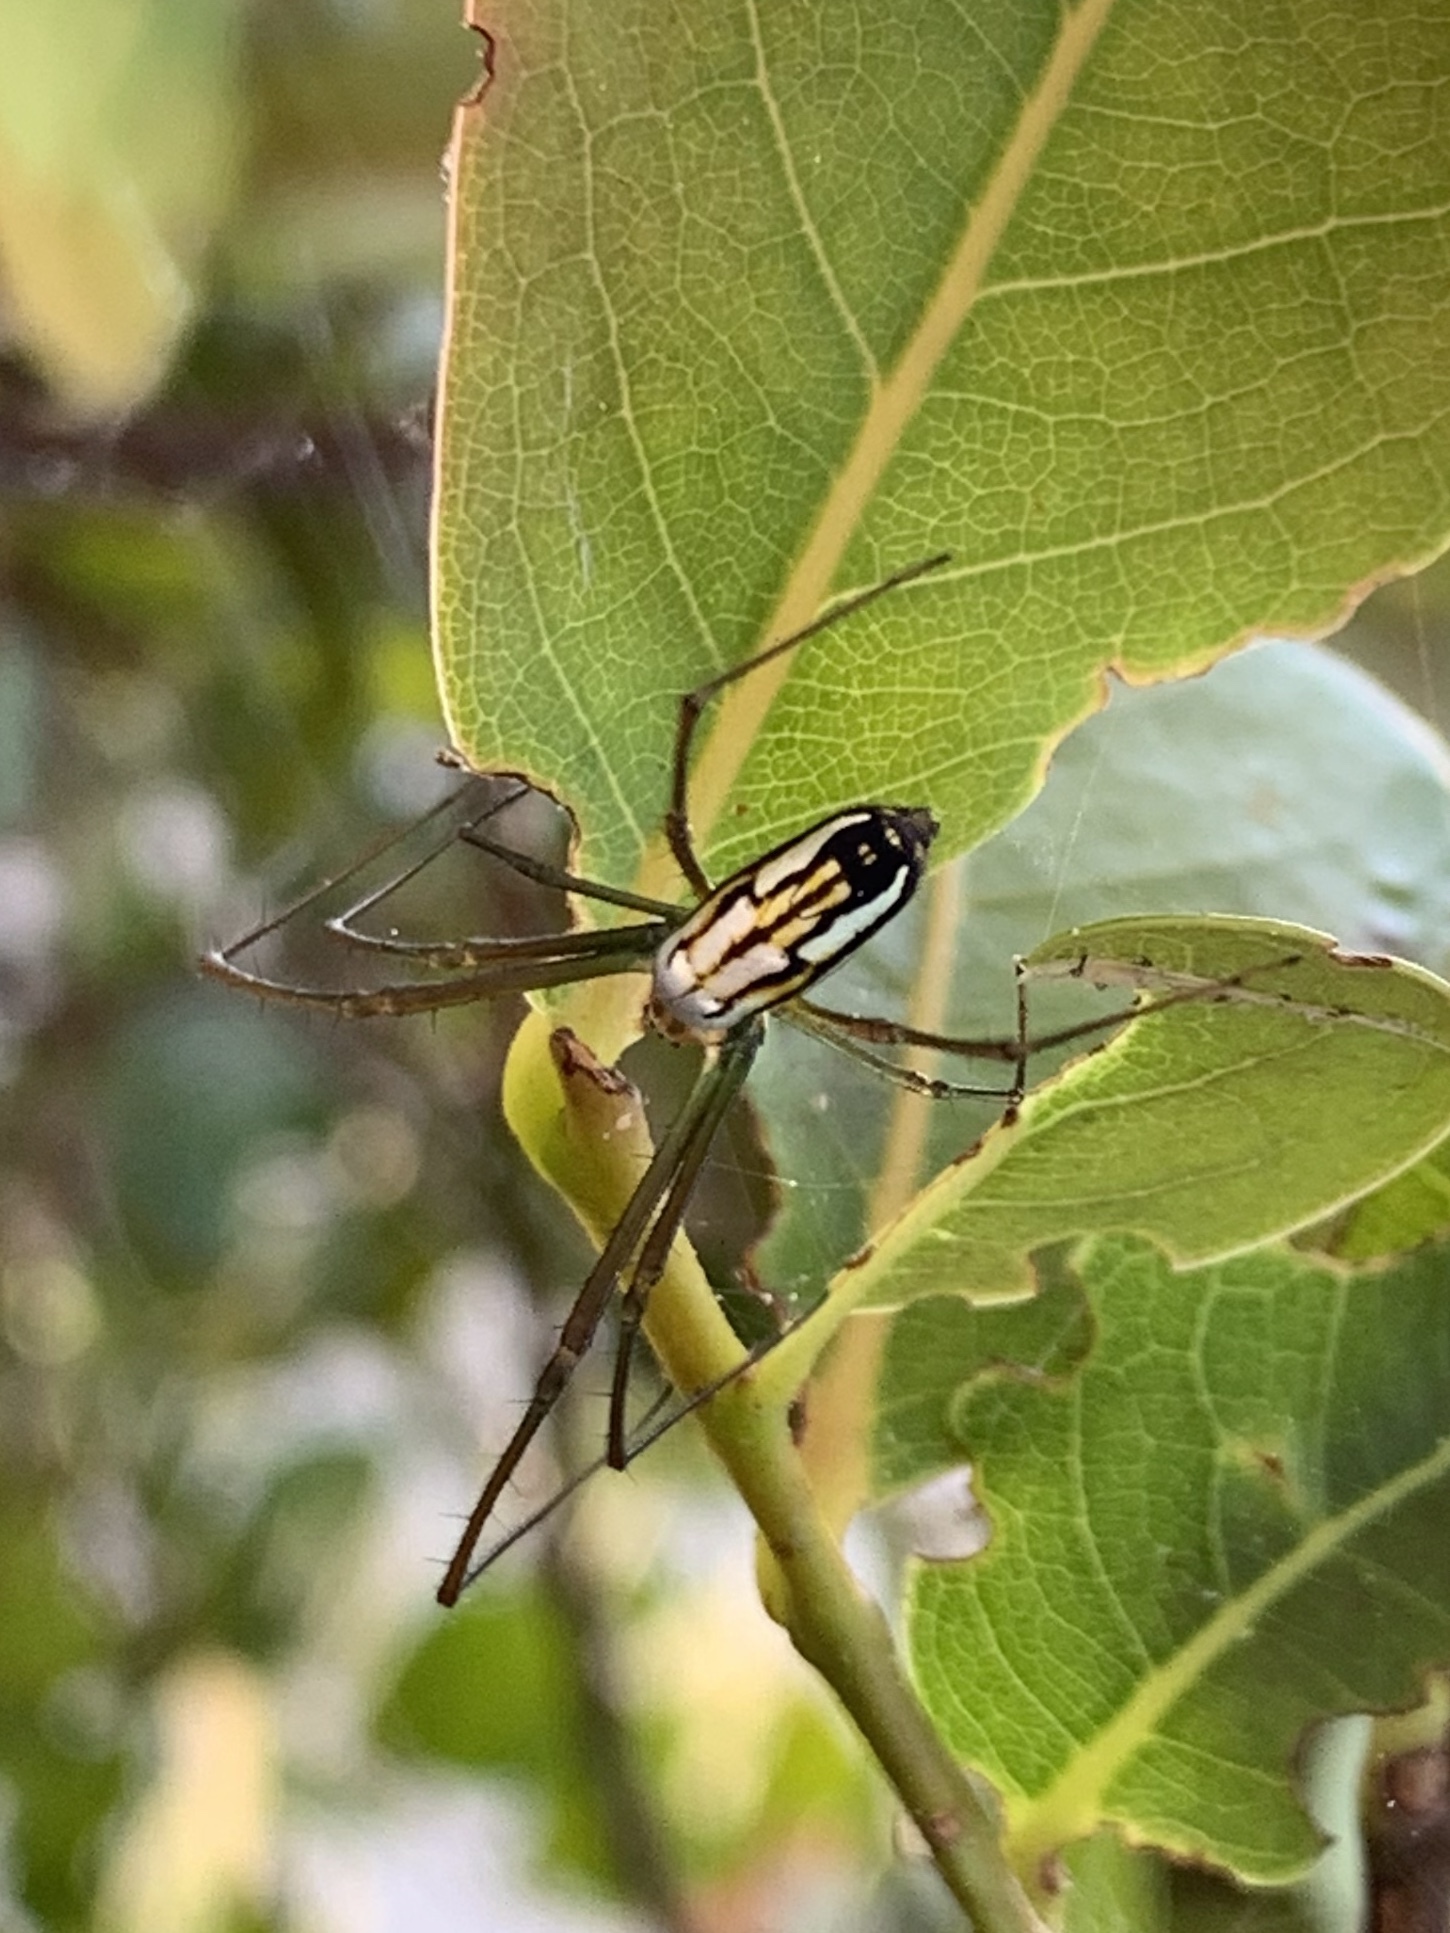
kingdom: Animalia
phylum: Arthropoda
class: Arachnida
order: Araneae
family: Tetragnathidae
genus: Leucauge
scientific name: Leucauge argyra
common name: Longjawed orb weavers
